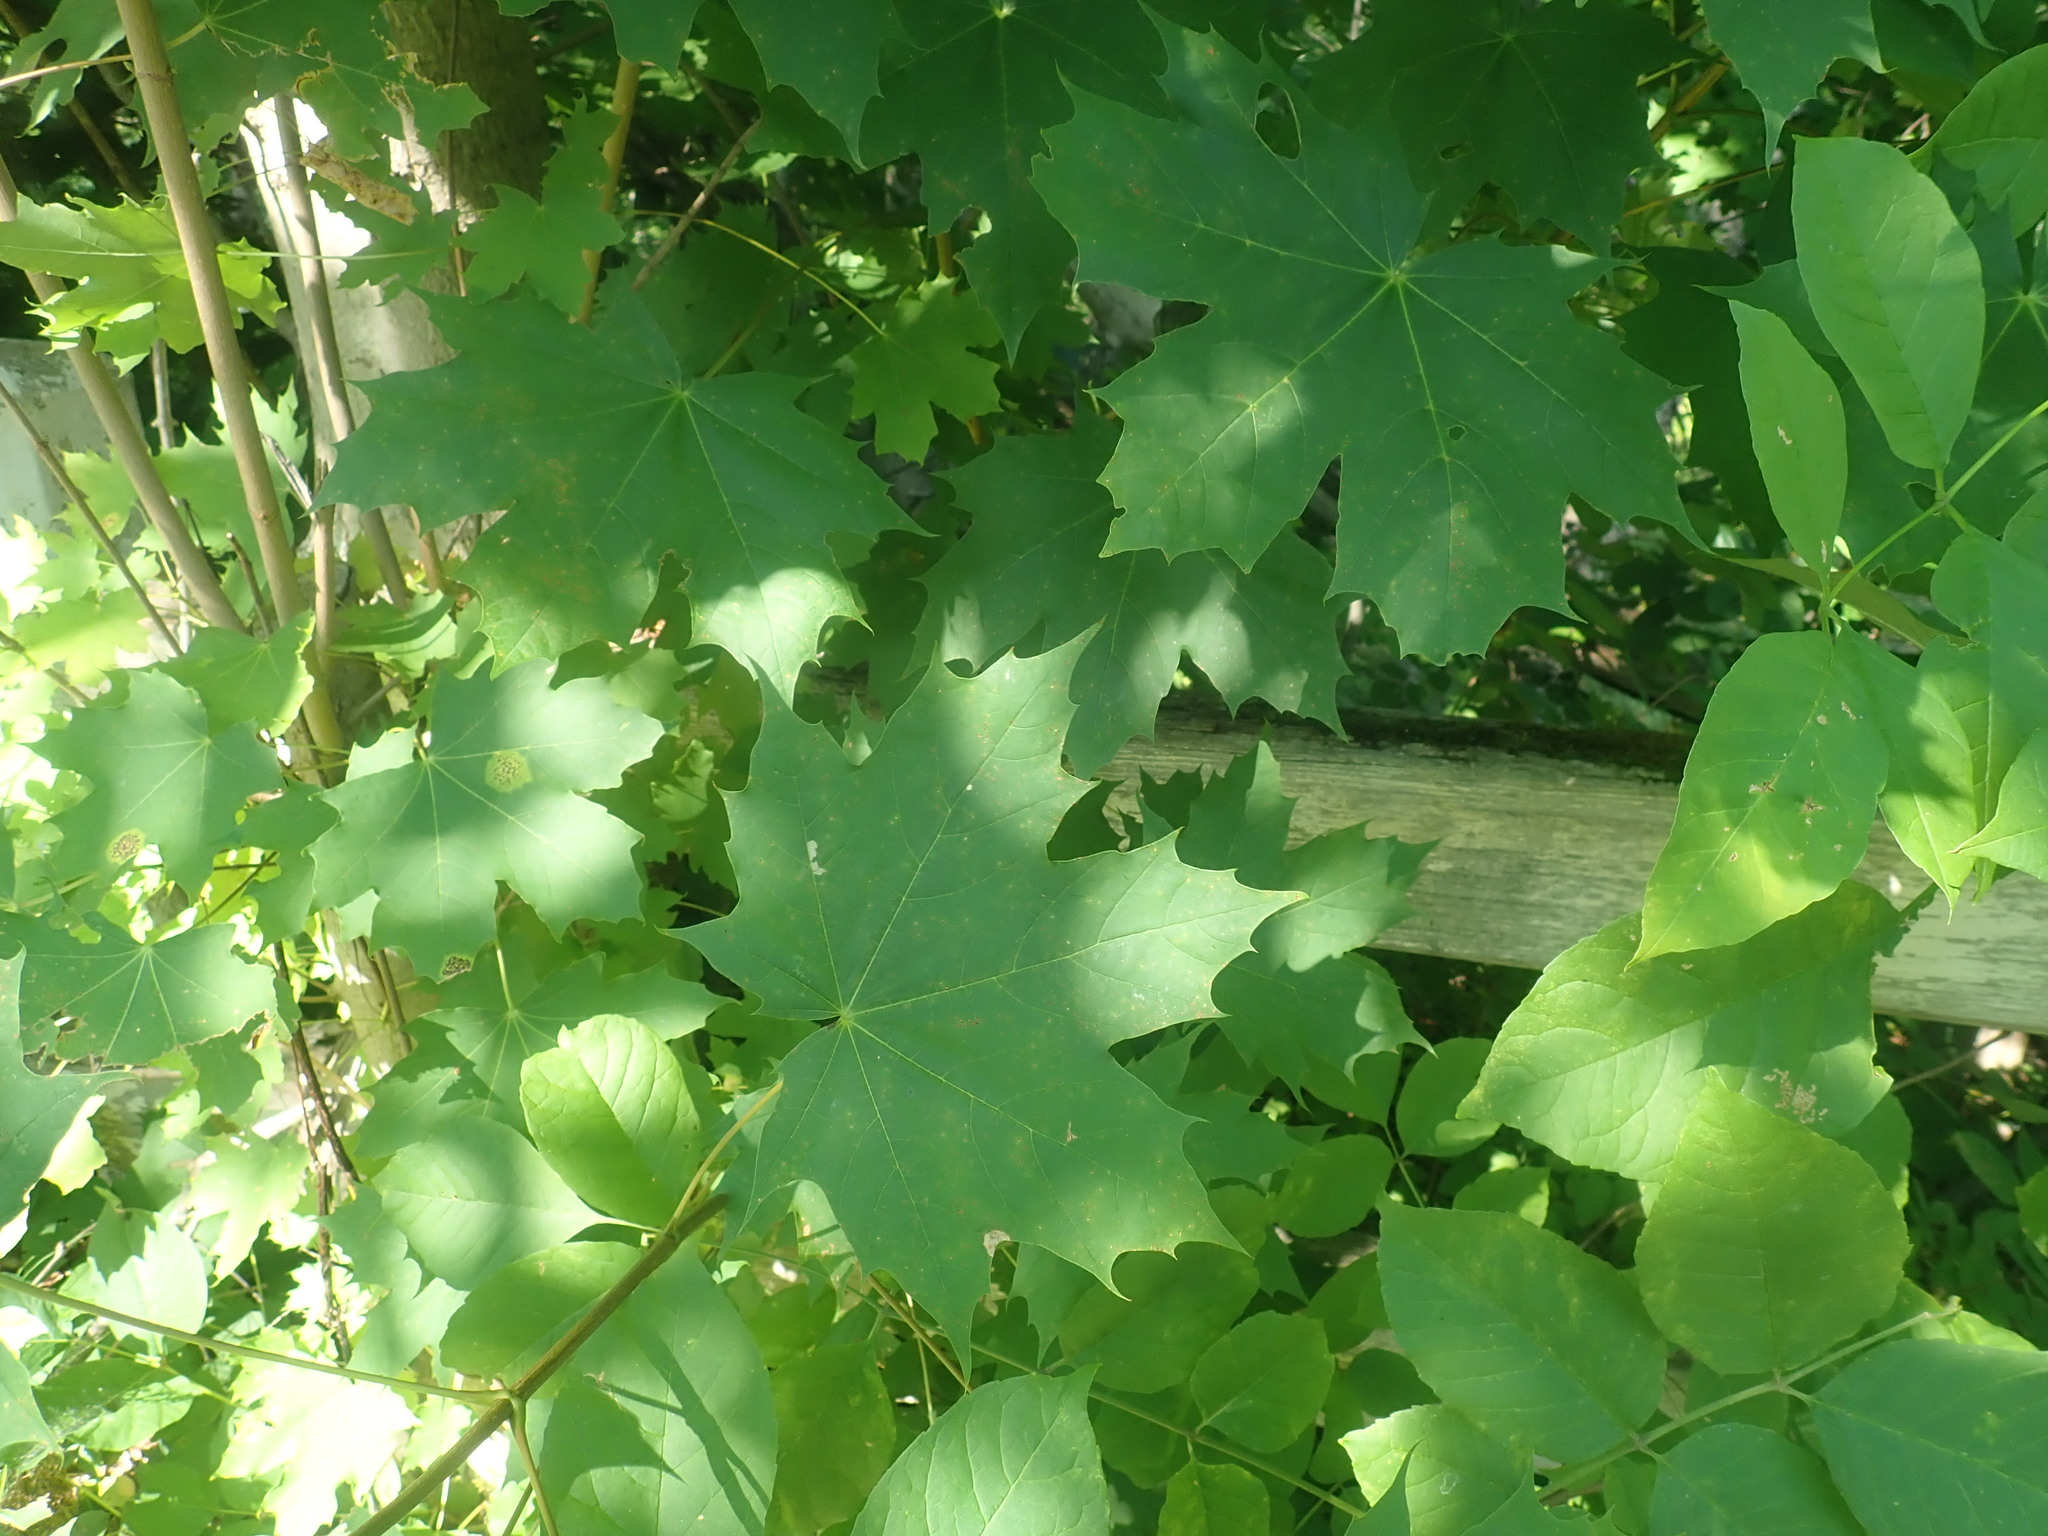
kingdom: Plantae
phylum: Tracheophyta
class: Magnoliopsida
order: Sapindales
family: Sapindaceae
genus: Acer
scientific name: Acer platanoides
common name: Norway maple
